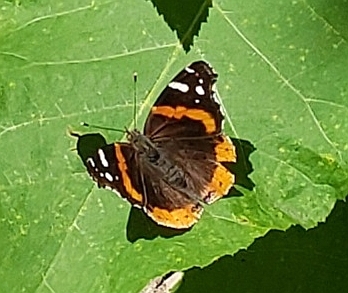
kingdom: Animalia
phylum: Arthropoda
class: Insecta
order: Lepidoptera
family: Nymphalidae
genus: Vanessa
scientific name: Vanessa atalanta
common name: Red admiral
